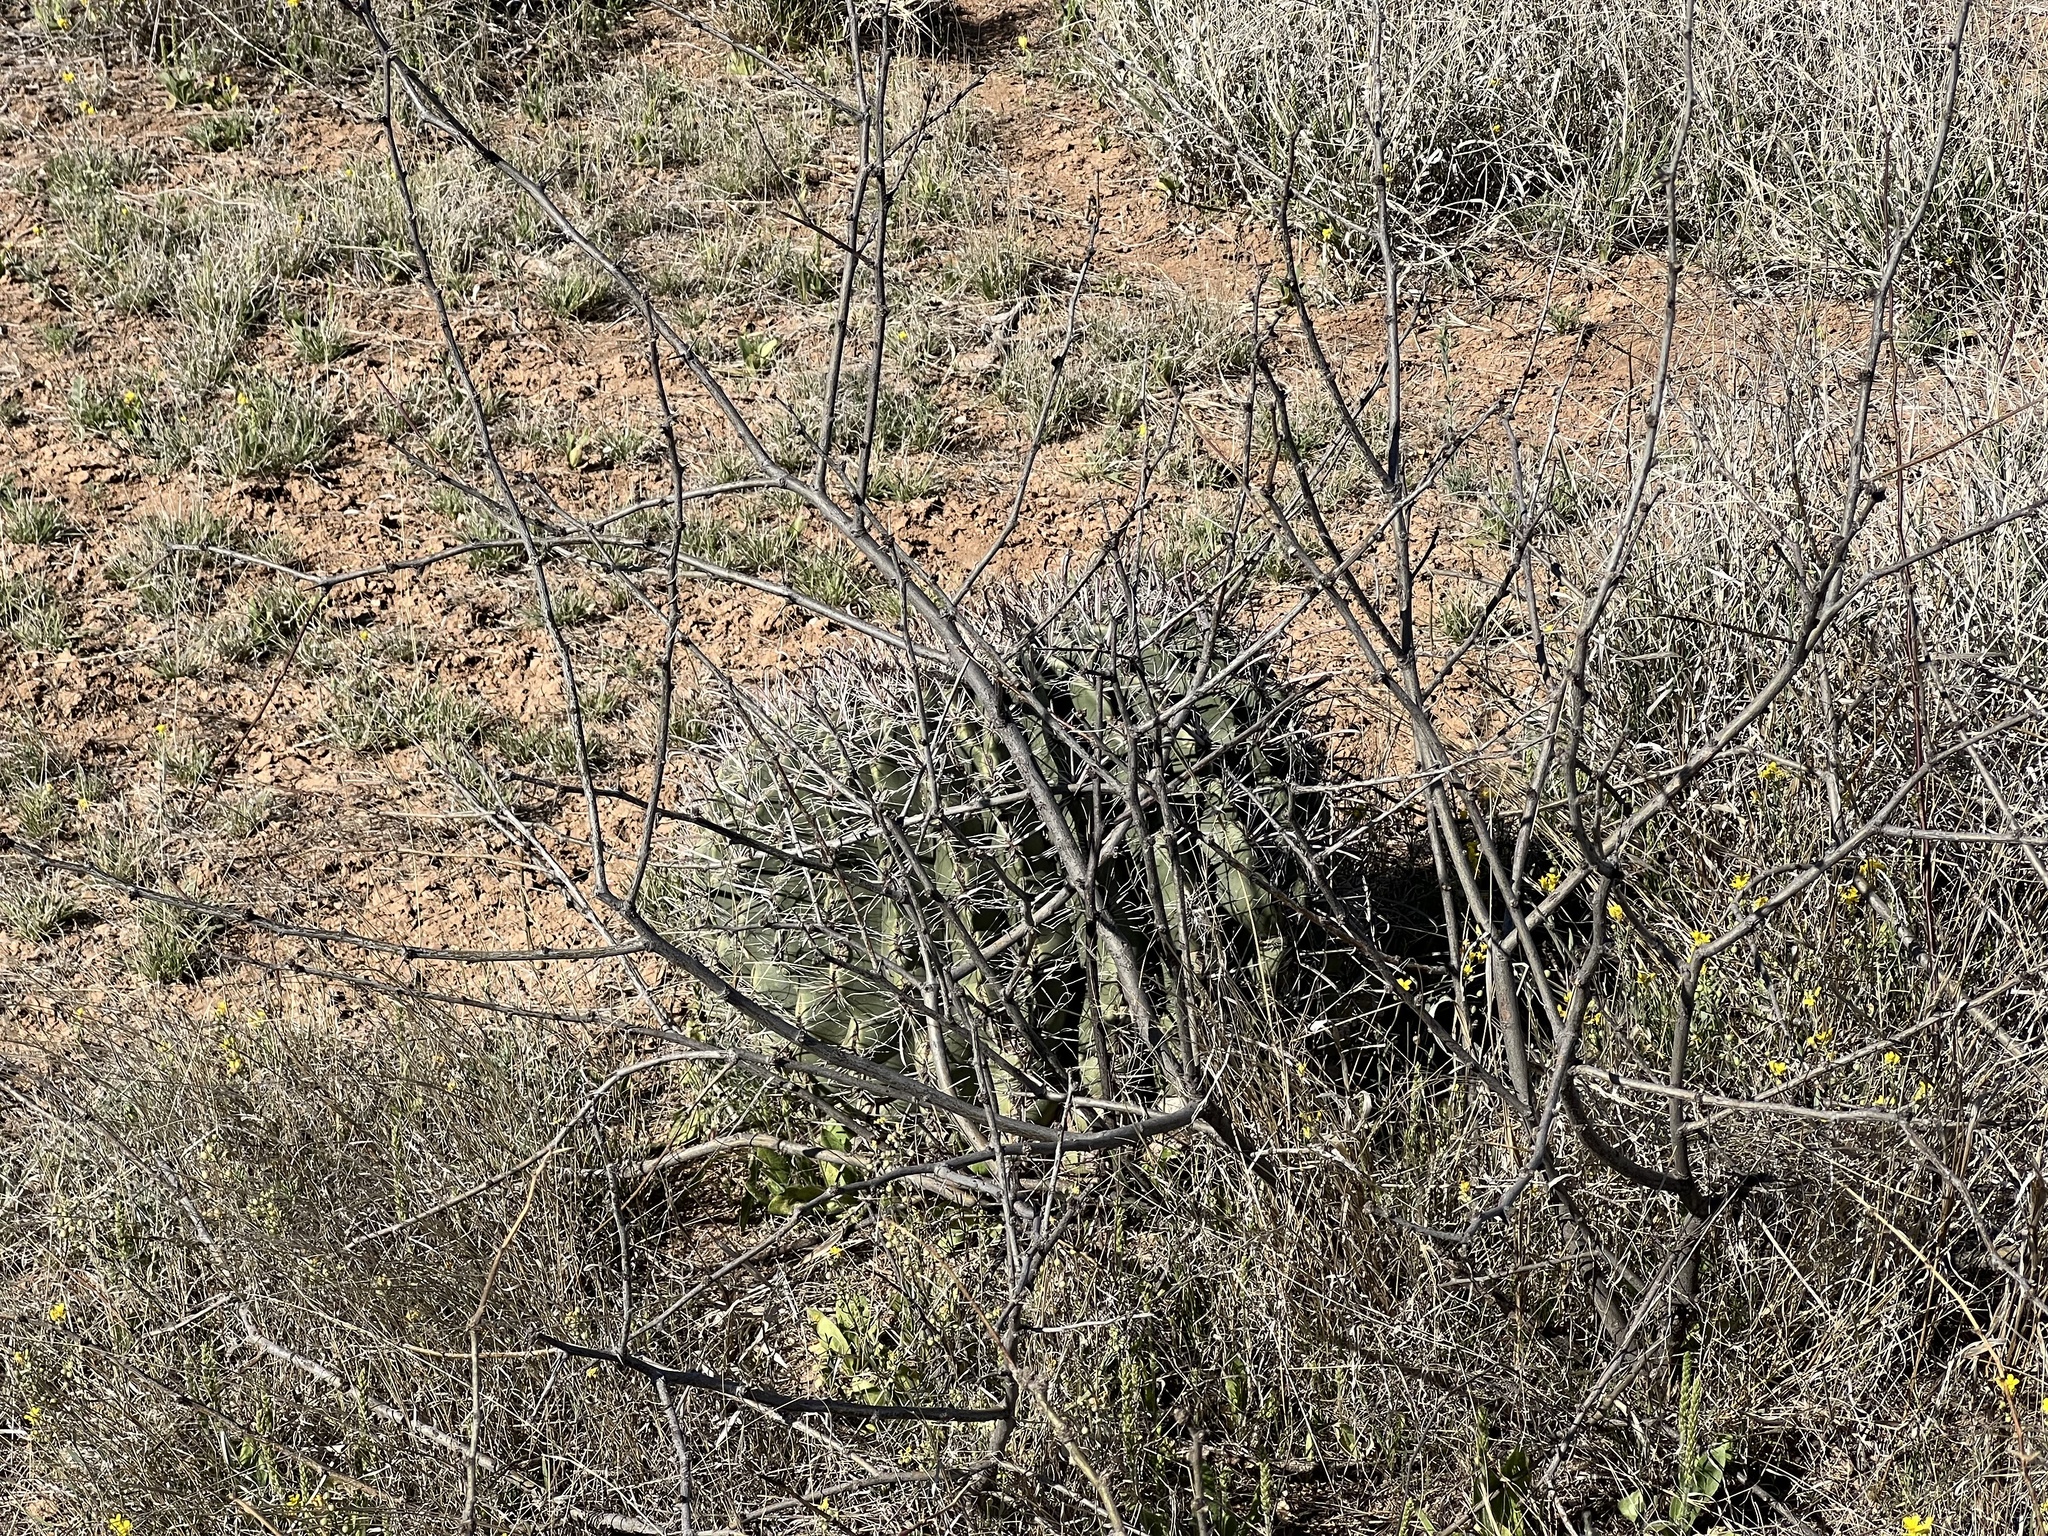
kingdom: Plantae
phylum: Tracheophyta
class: Magnoliopsida
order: Caryophyllales
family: Cactaceae
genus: Ferocactus
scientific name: Ferocactus wislizeni
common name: Candy barrel cactus
